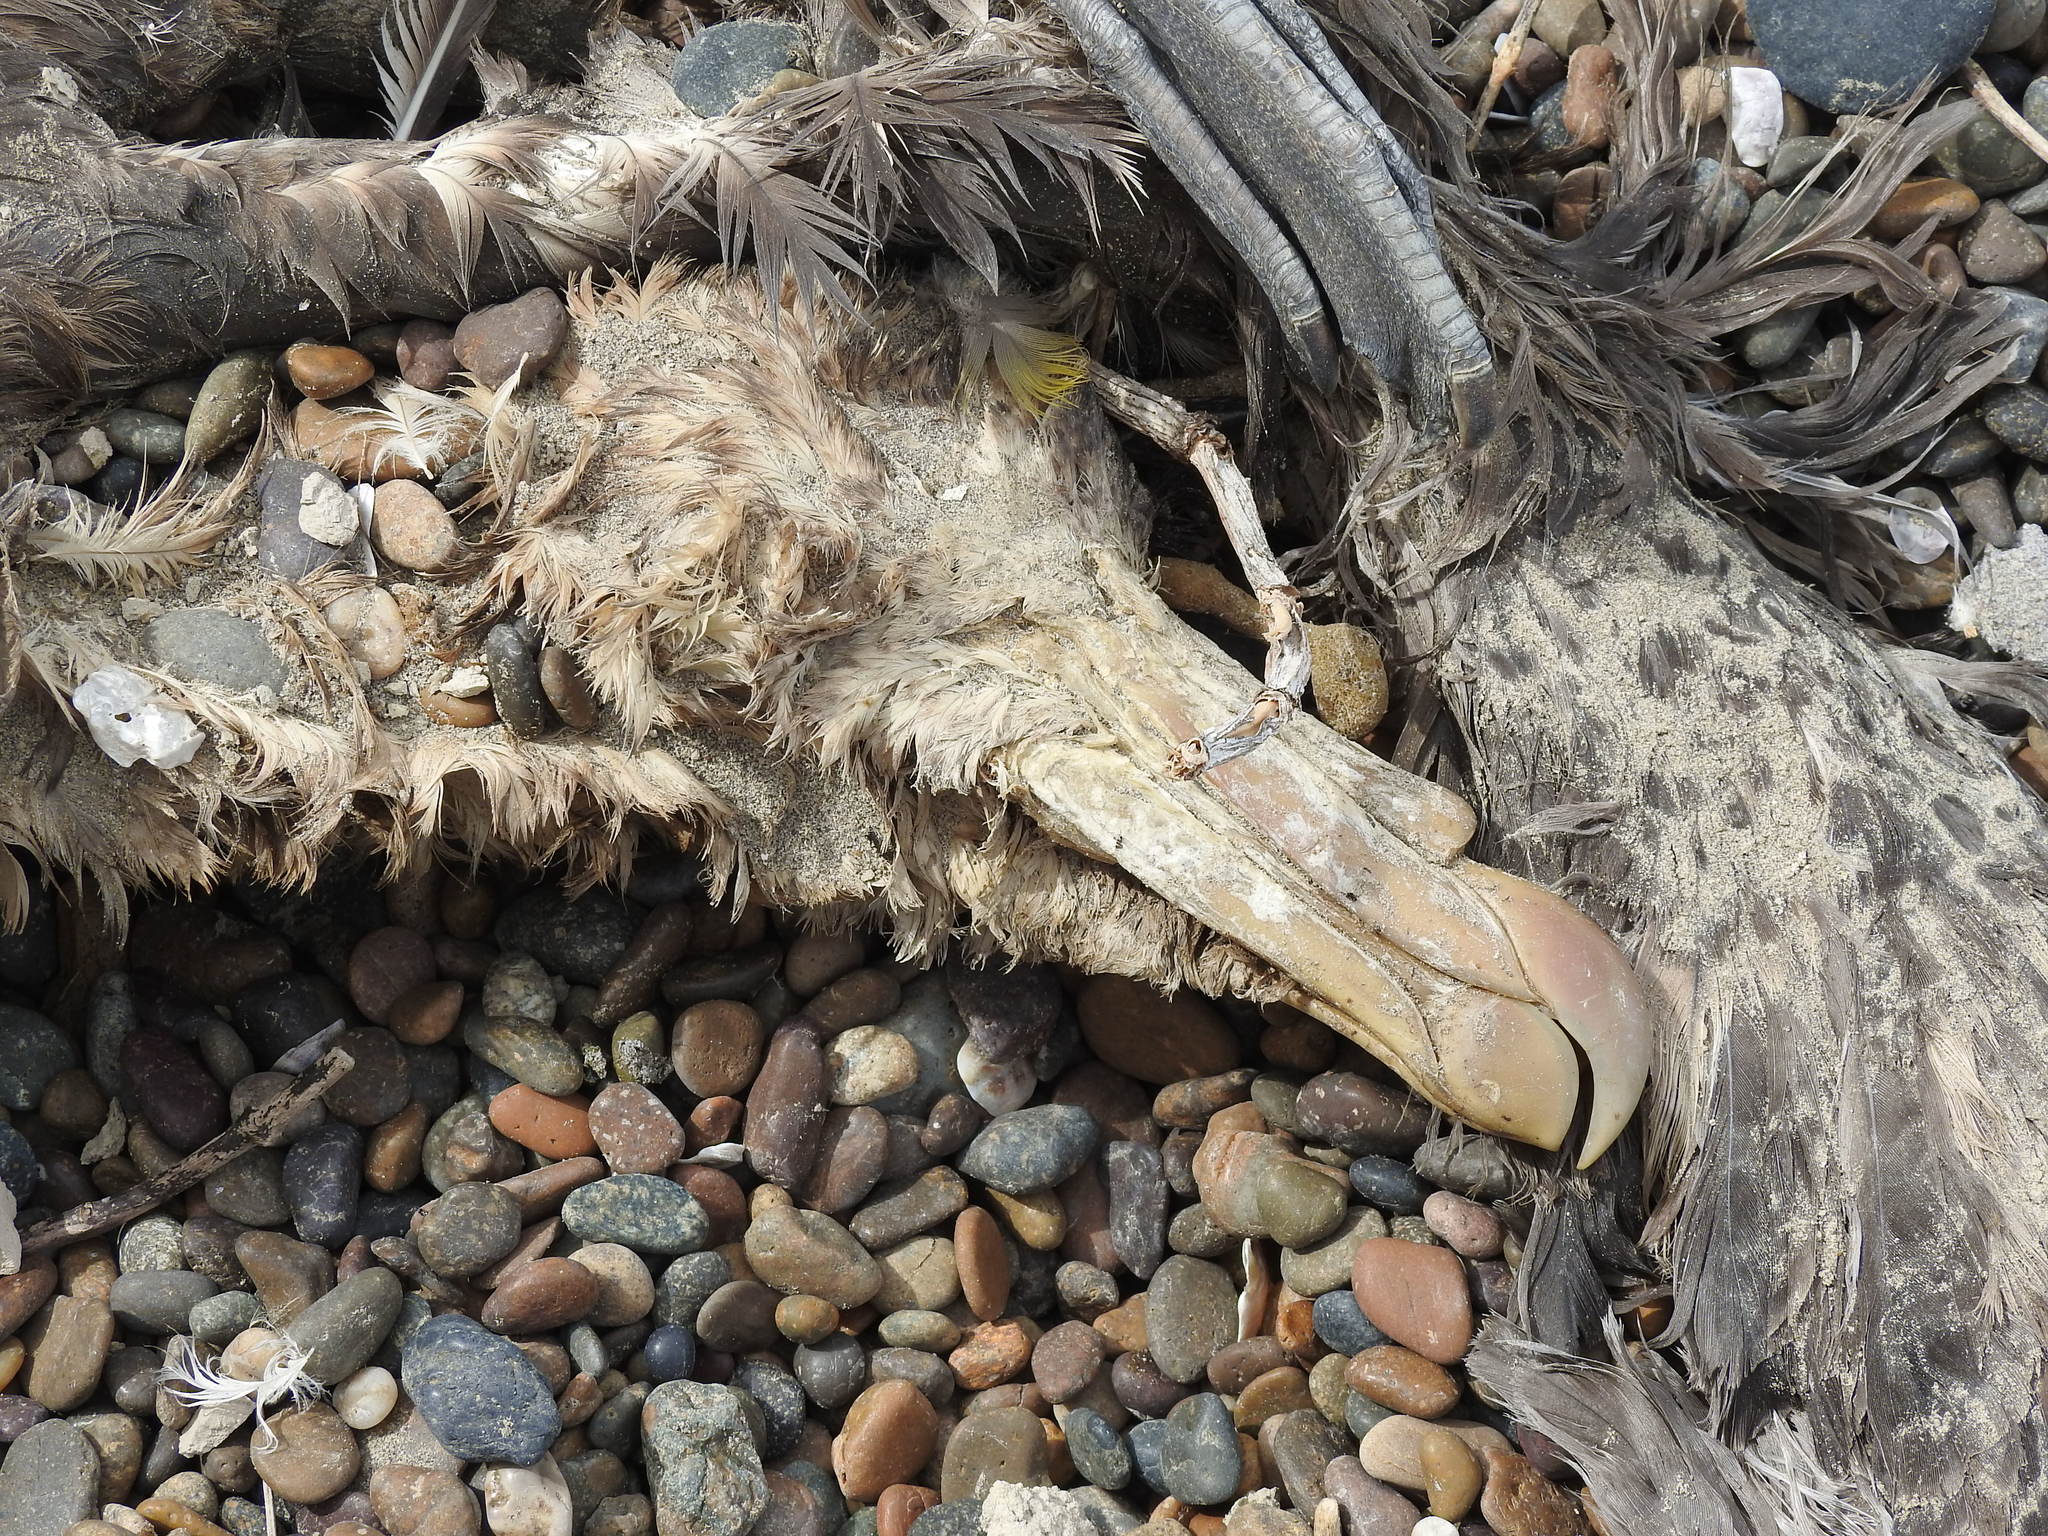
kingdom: Animalia
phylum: Chordata
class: Aves
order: Procellariiformes
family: Procellariidae
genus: Macronectes
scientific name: Macronectes halli
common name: Northern giant petrel
